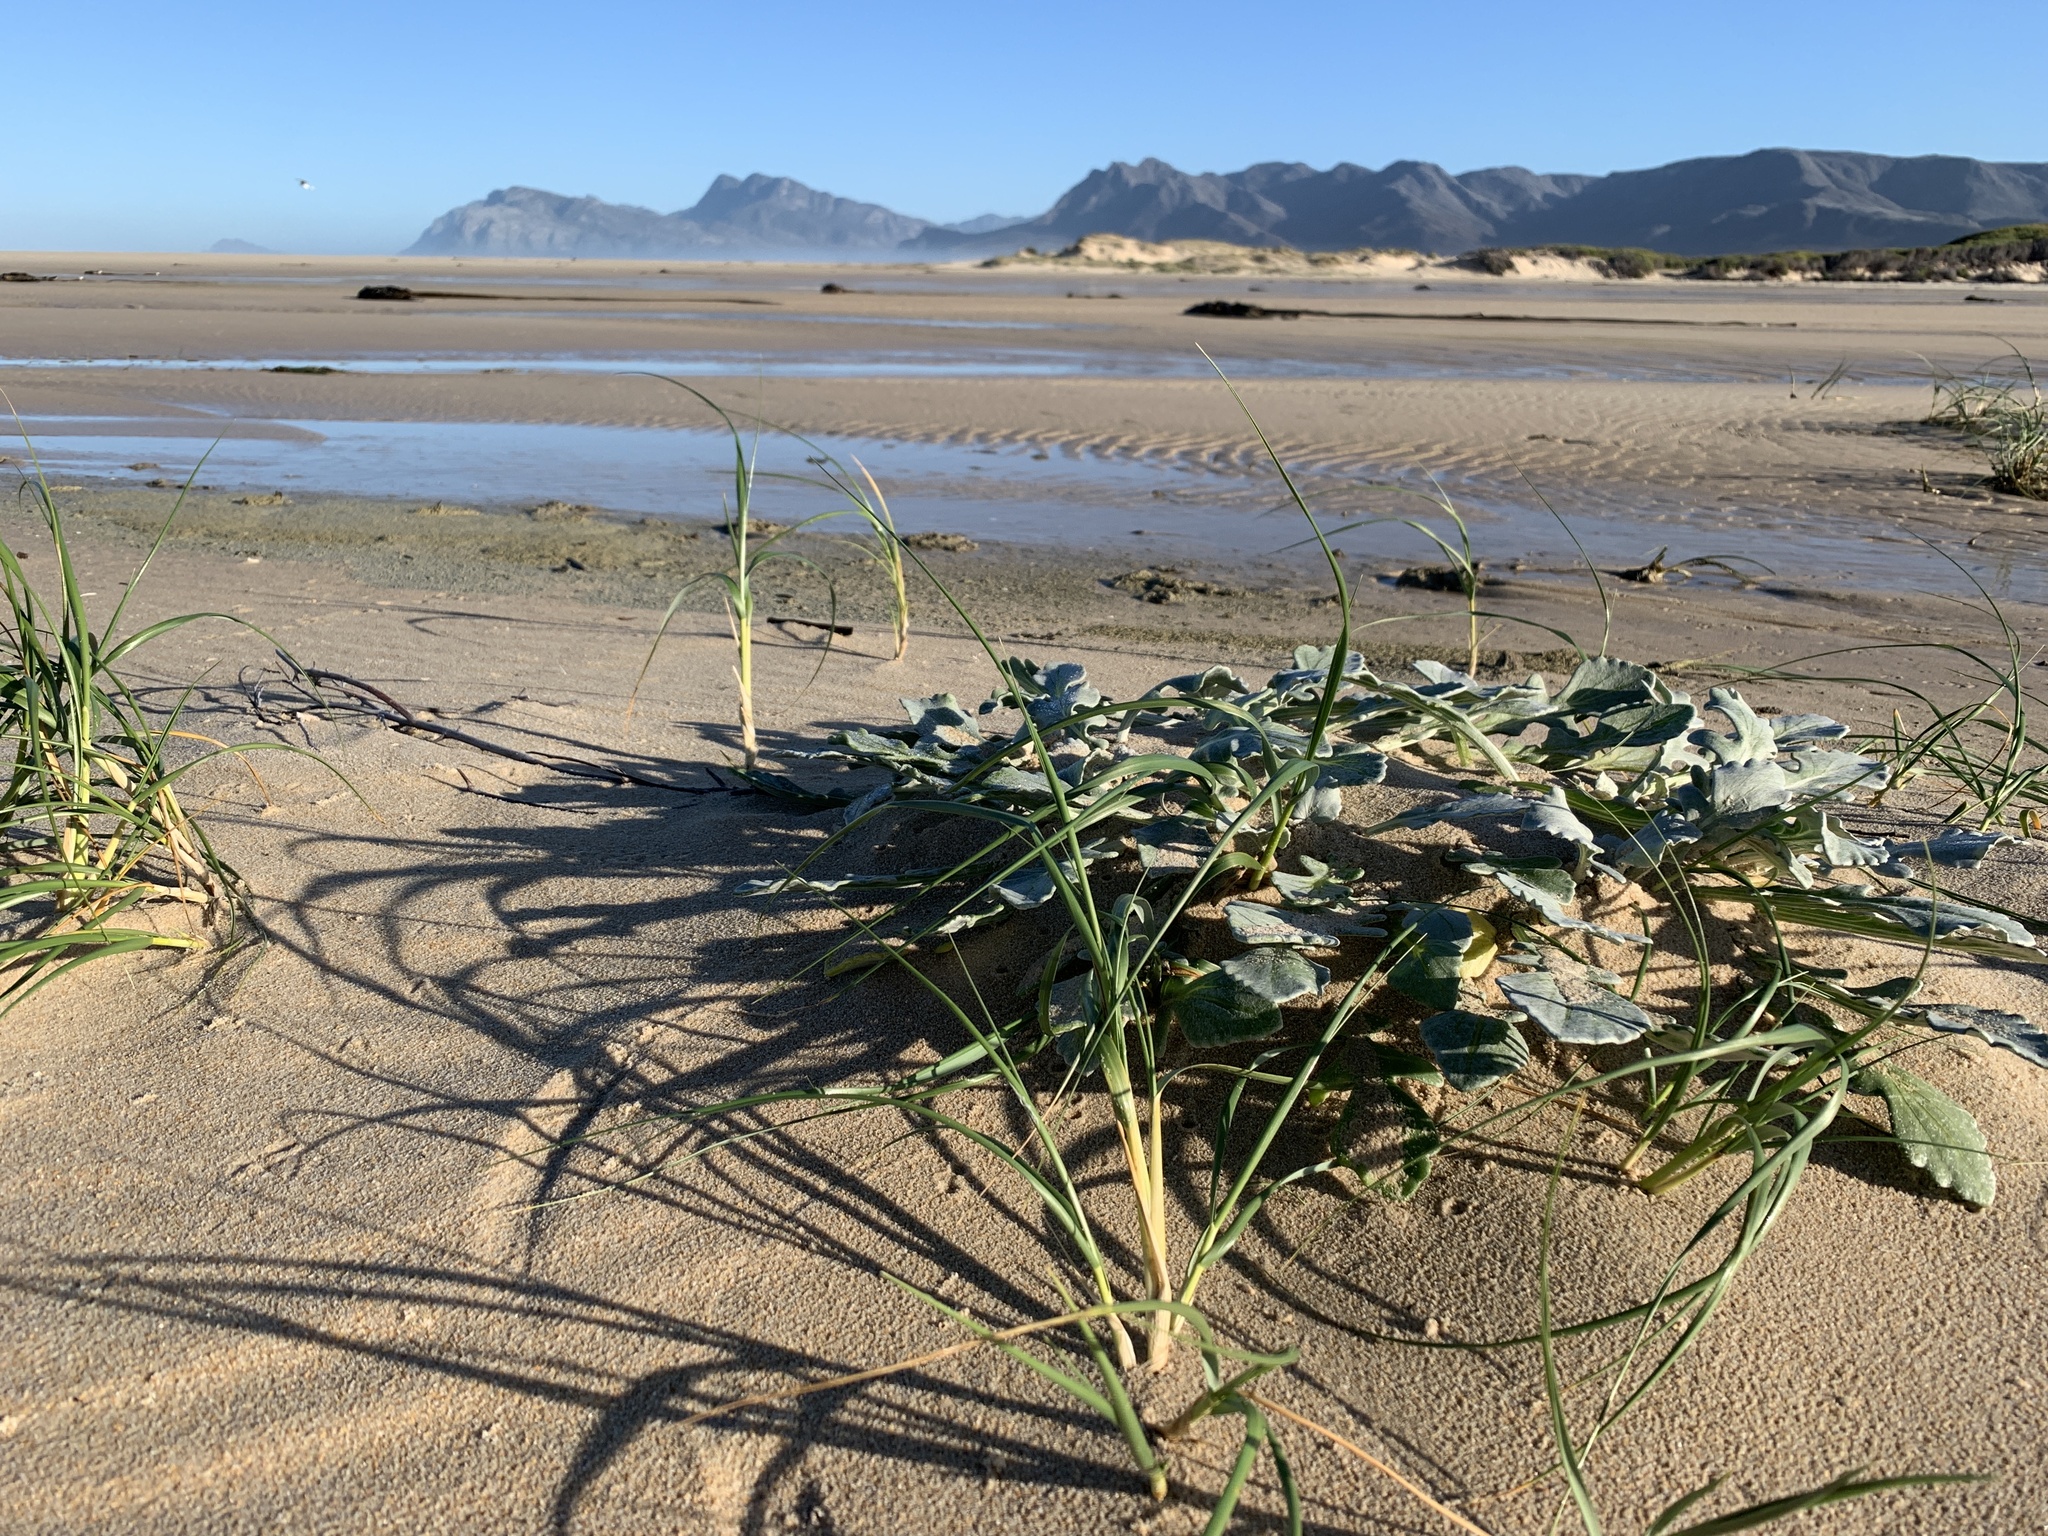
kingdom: Plantae
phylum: Tracheophyta
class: Magnoliopsida
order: Asterales
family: Asteraceae
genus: Arctotheca
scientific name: Arctotheca populifolia
